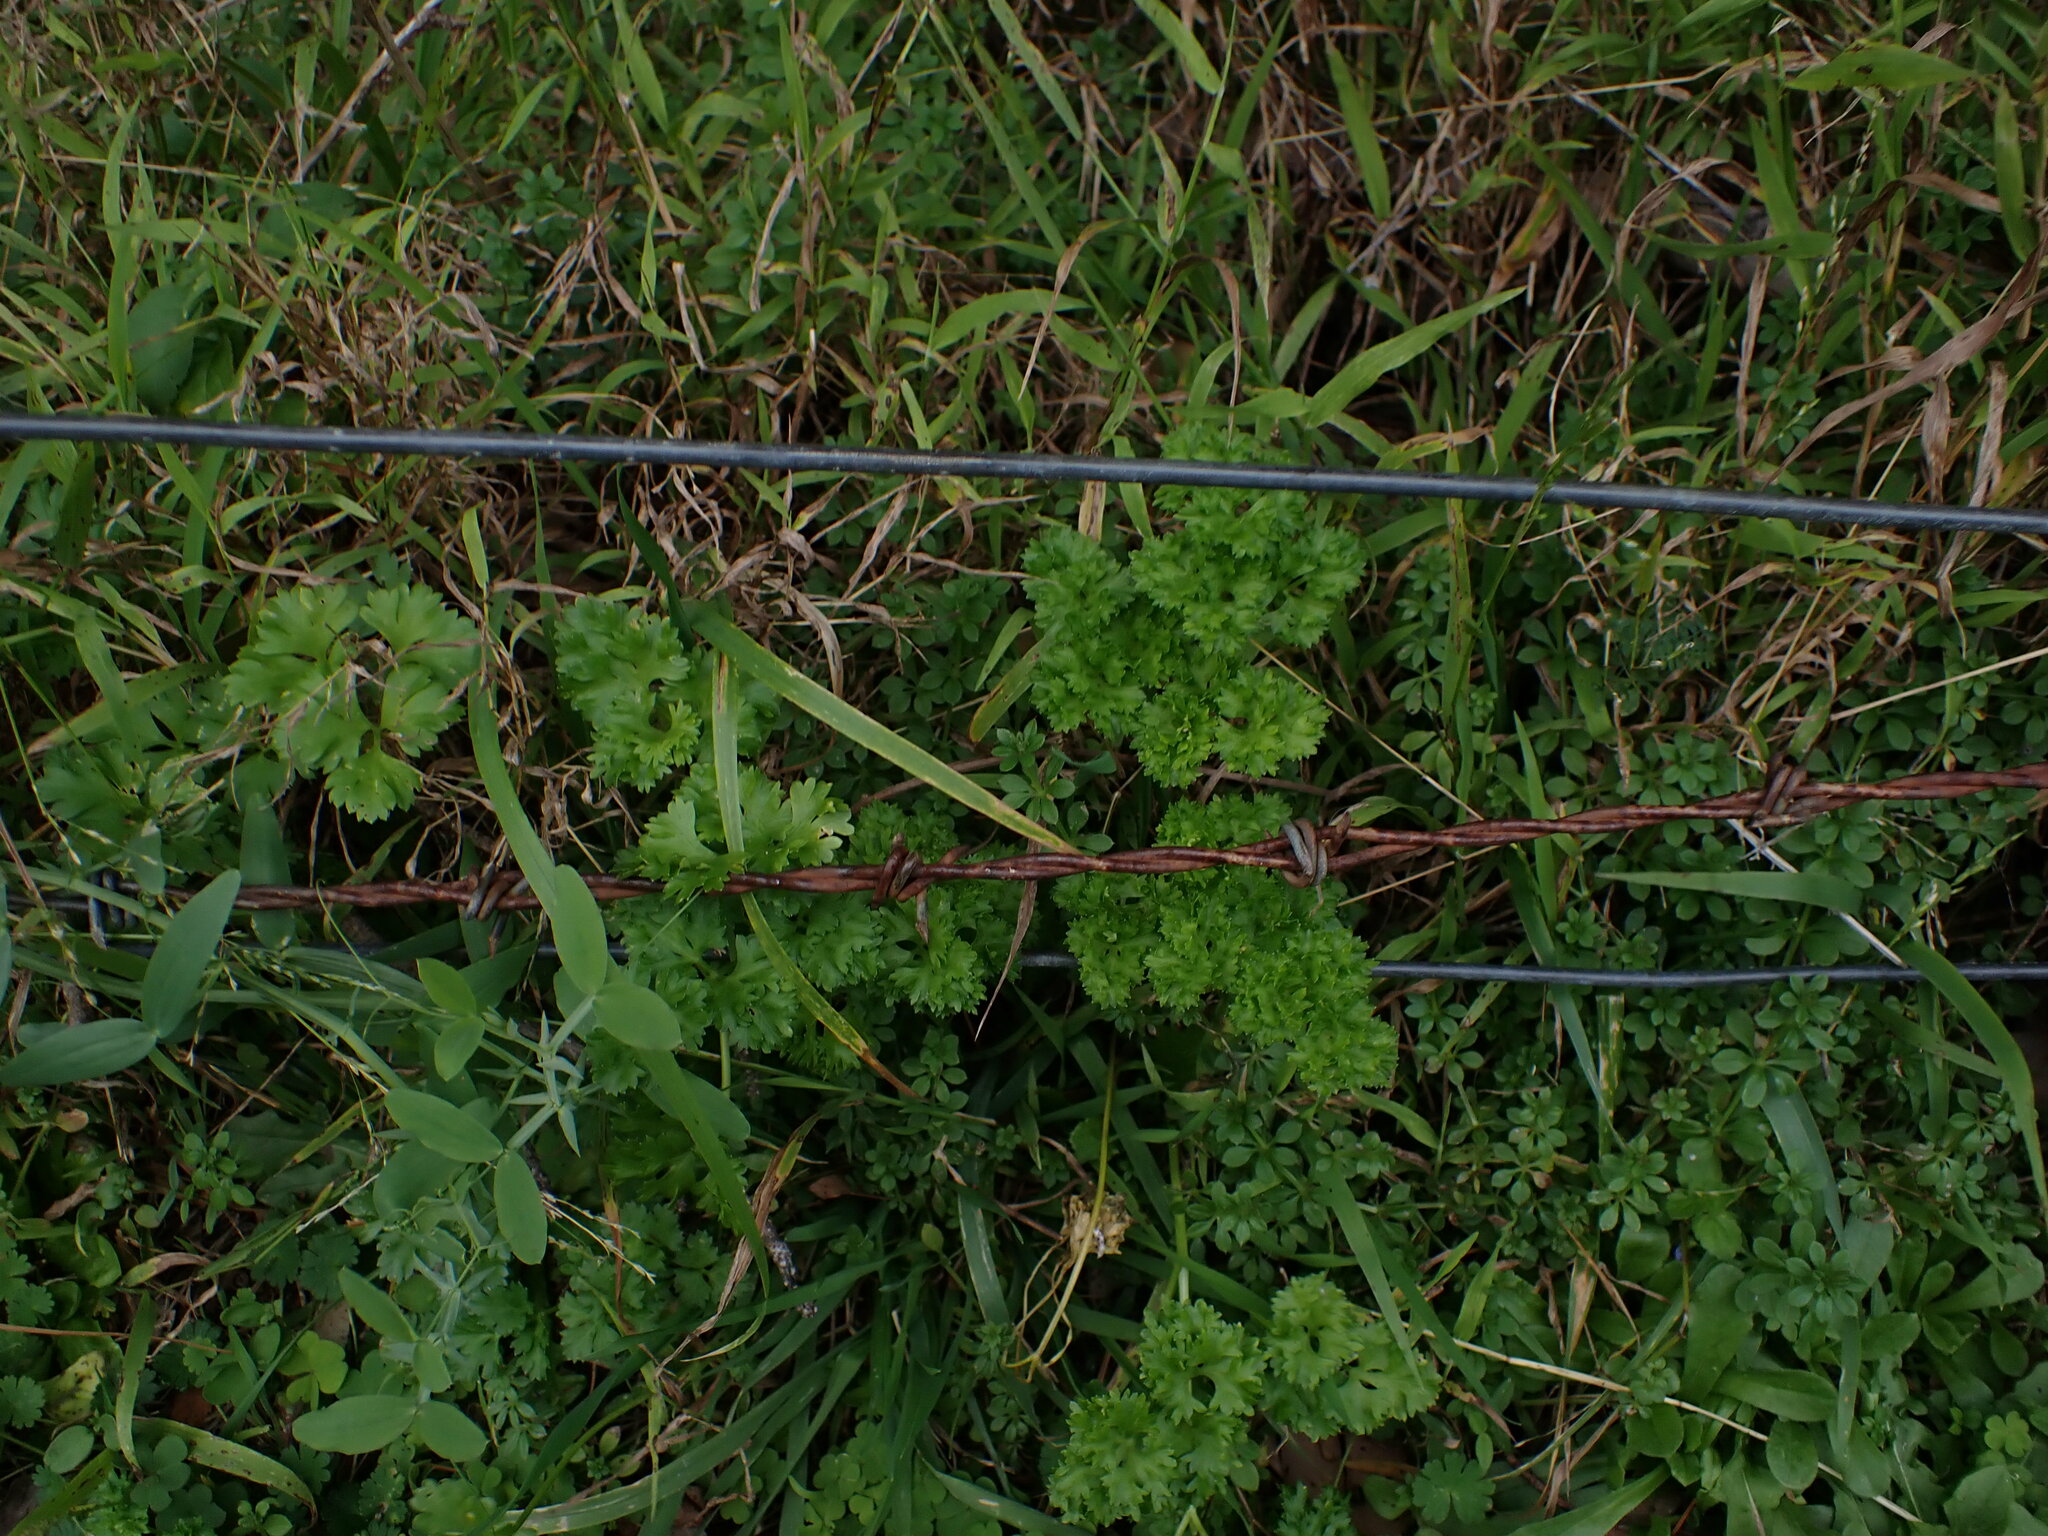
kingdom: Plantae
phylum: Tracheophyta
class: Magnoliopsida
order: Apiales
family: Apiaceae
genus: Petroselinum
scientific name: Petroselinum crispum
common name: Parsley
